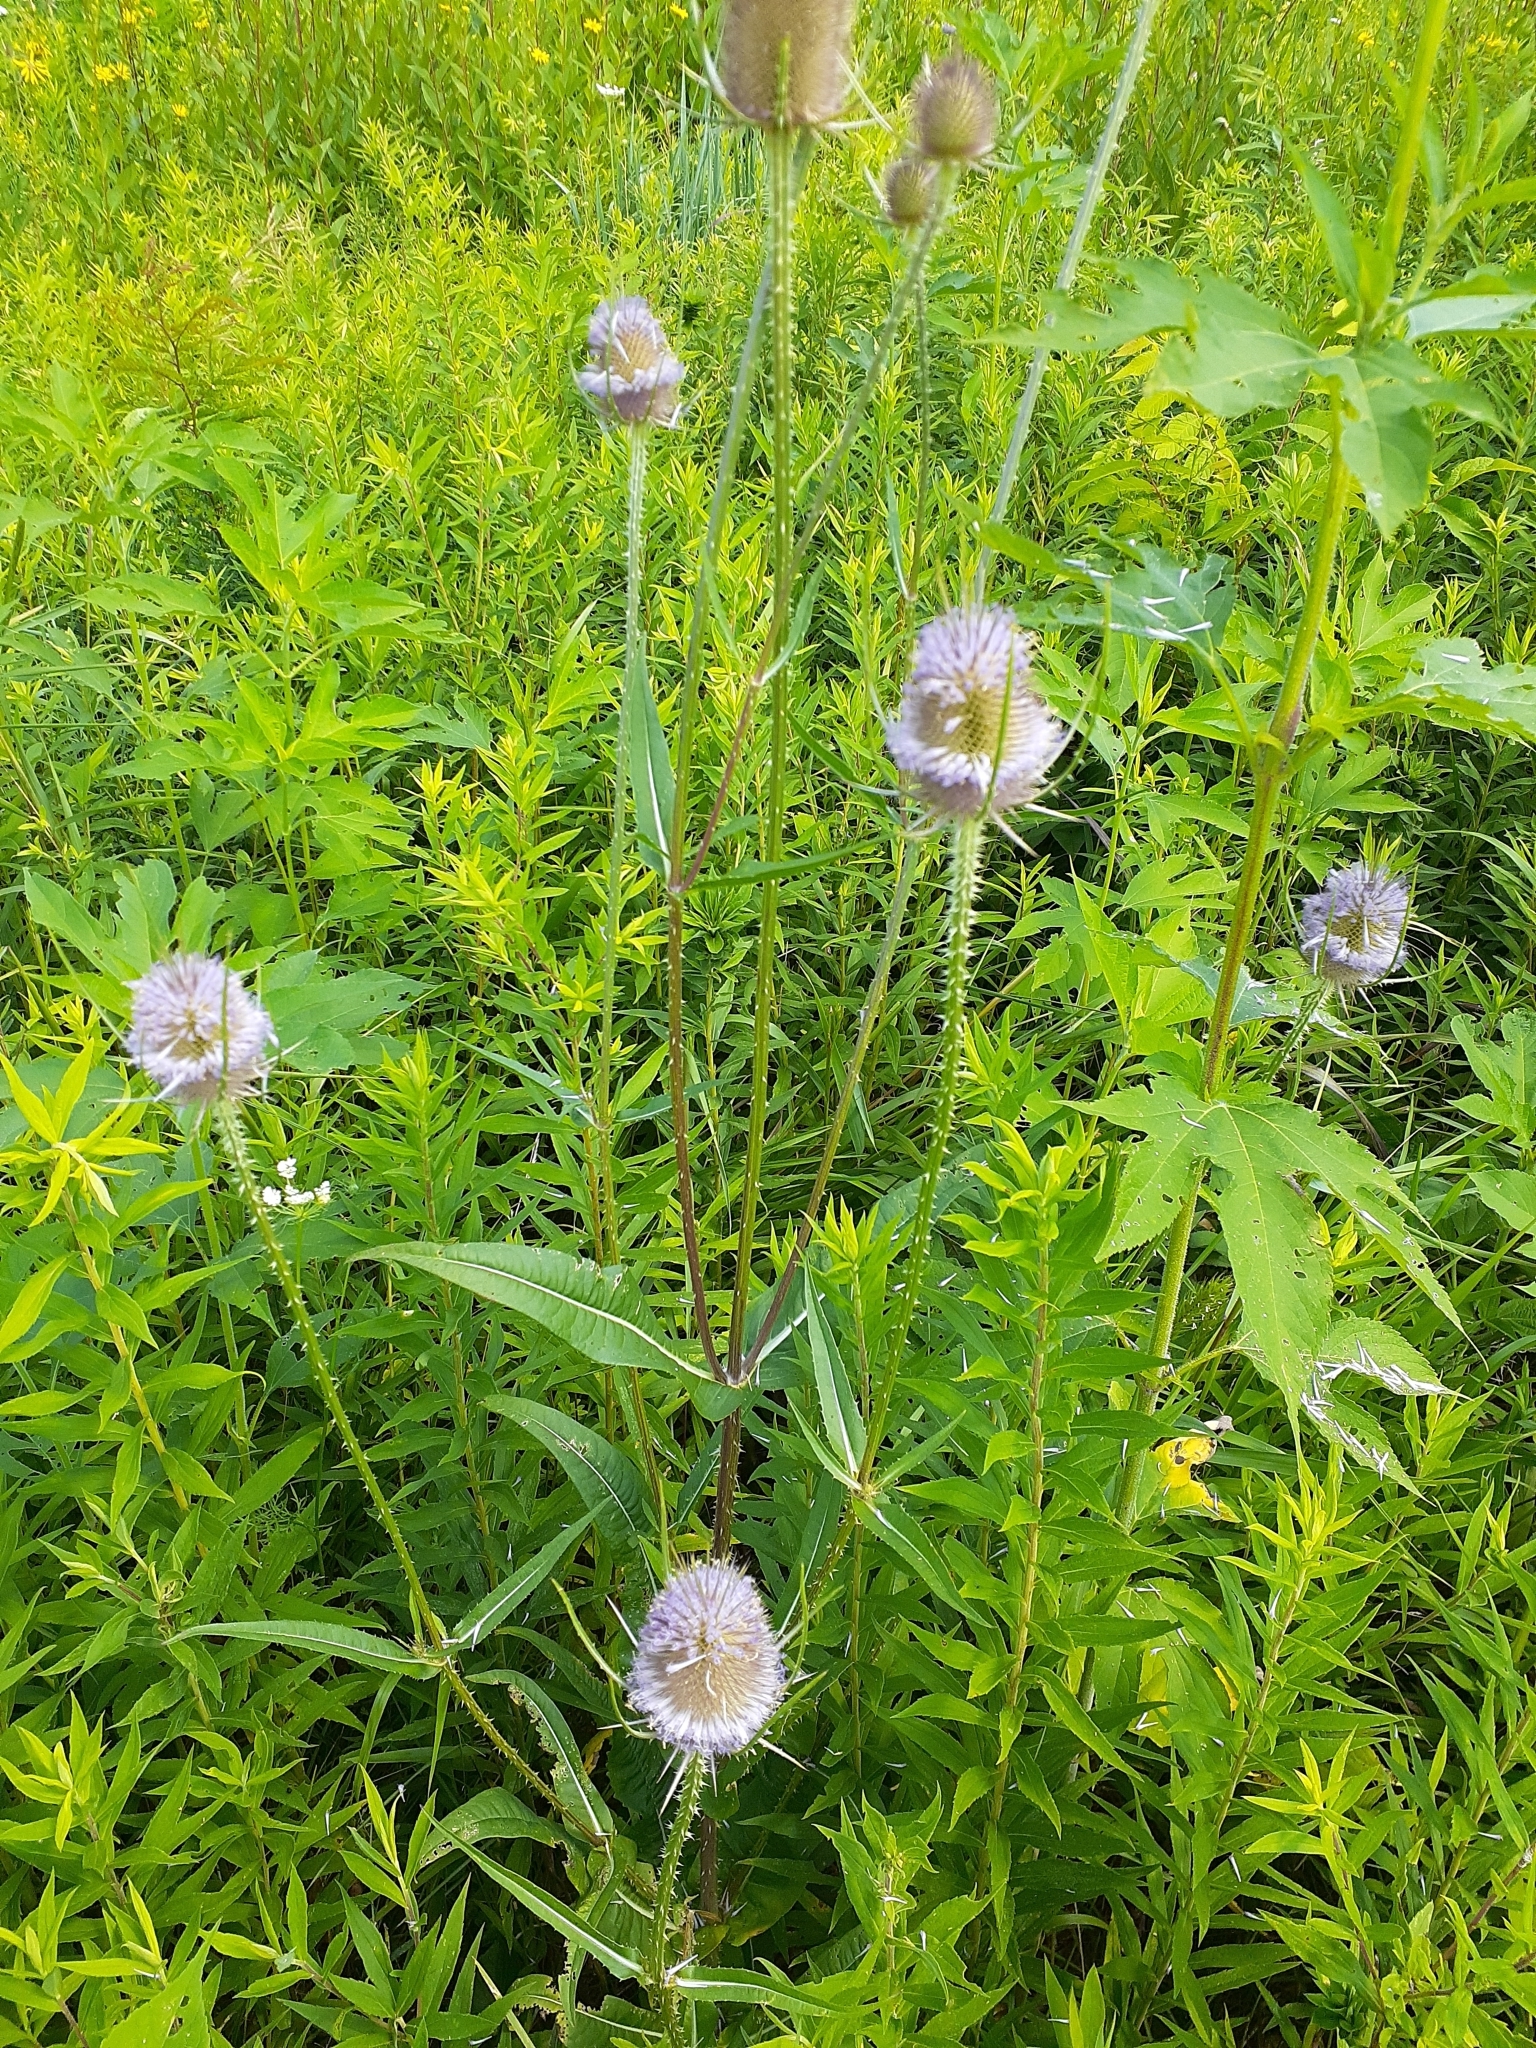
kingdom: Plantae
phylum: Tracheophyta
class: Magnoliopsida
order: Dipsacales
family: Caprifoliaceae
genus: Dipsacus
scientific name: Dipsacus fullonum
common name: Teasel
